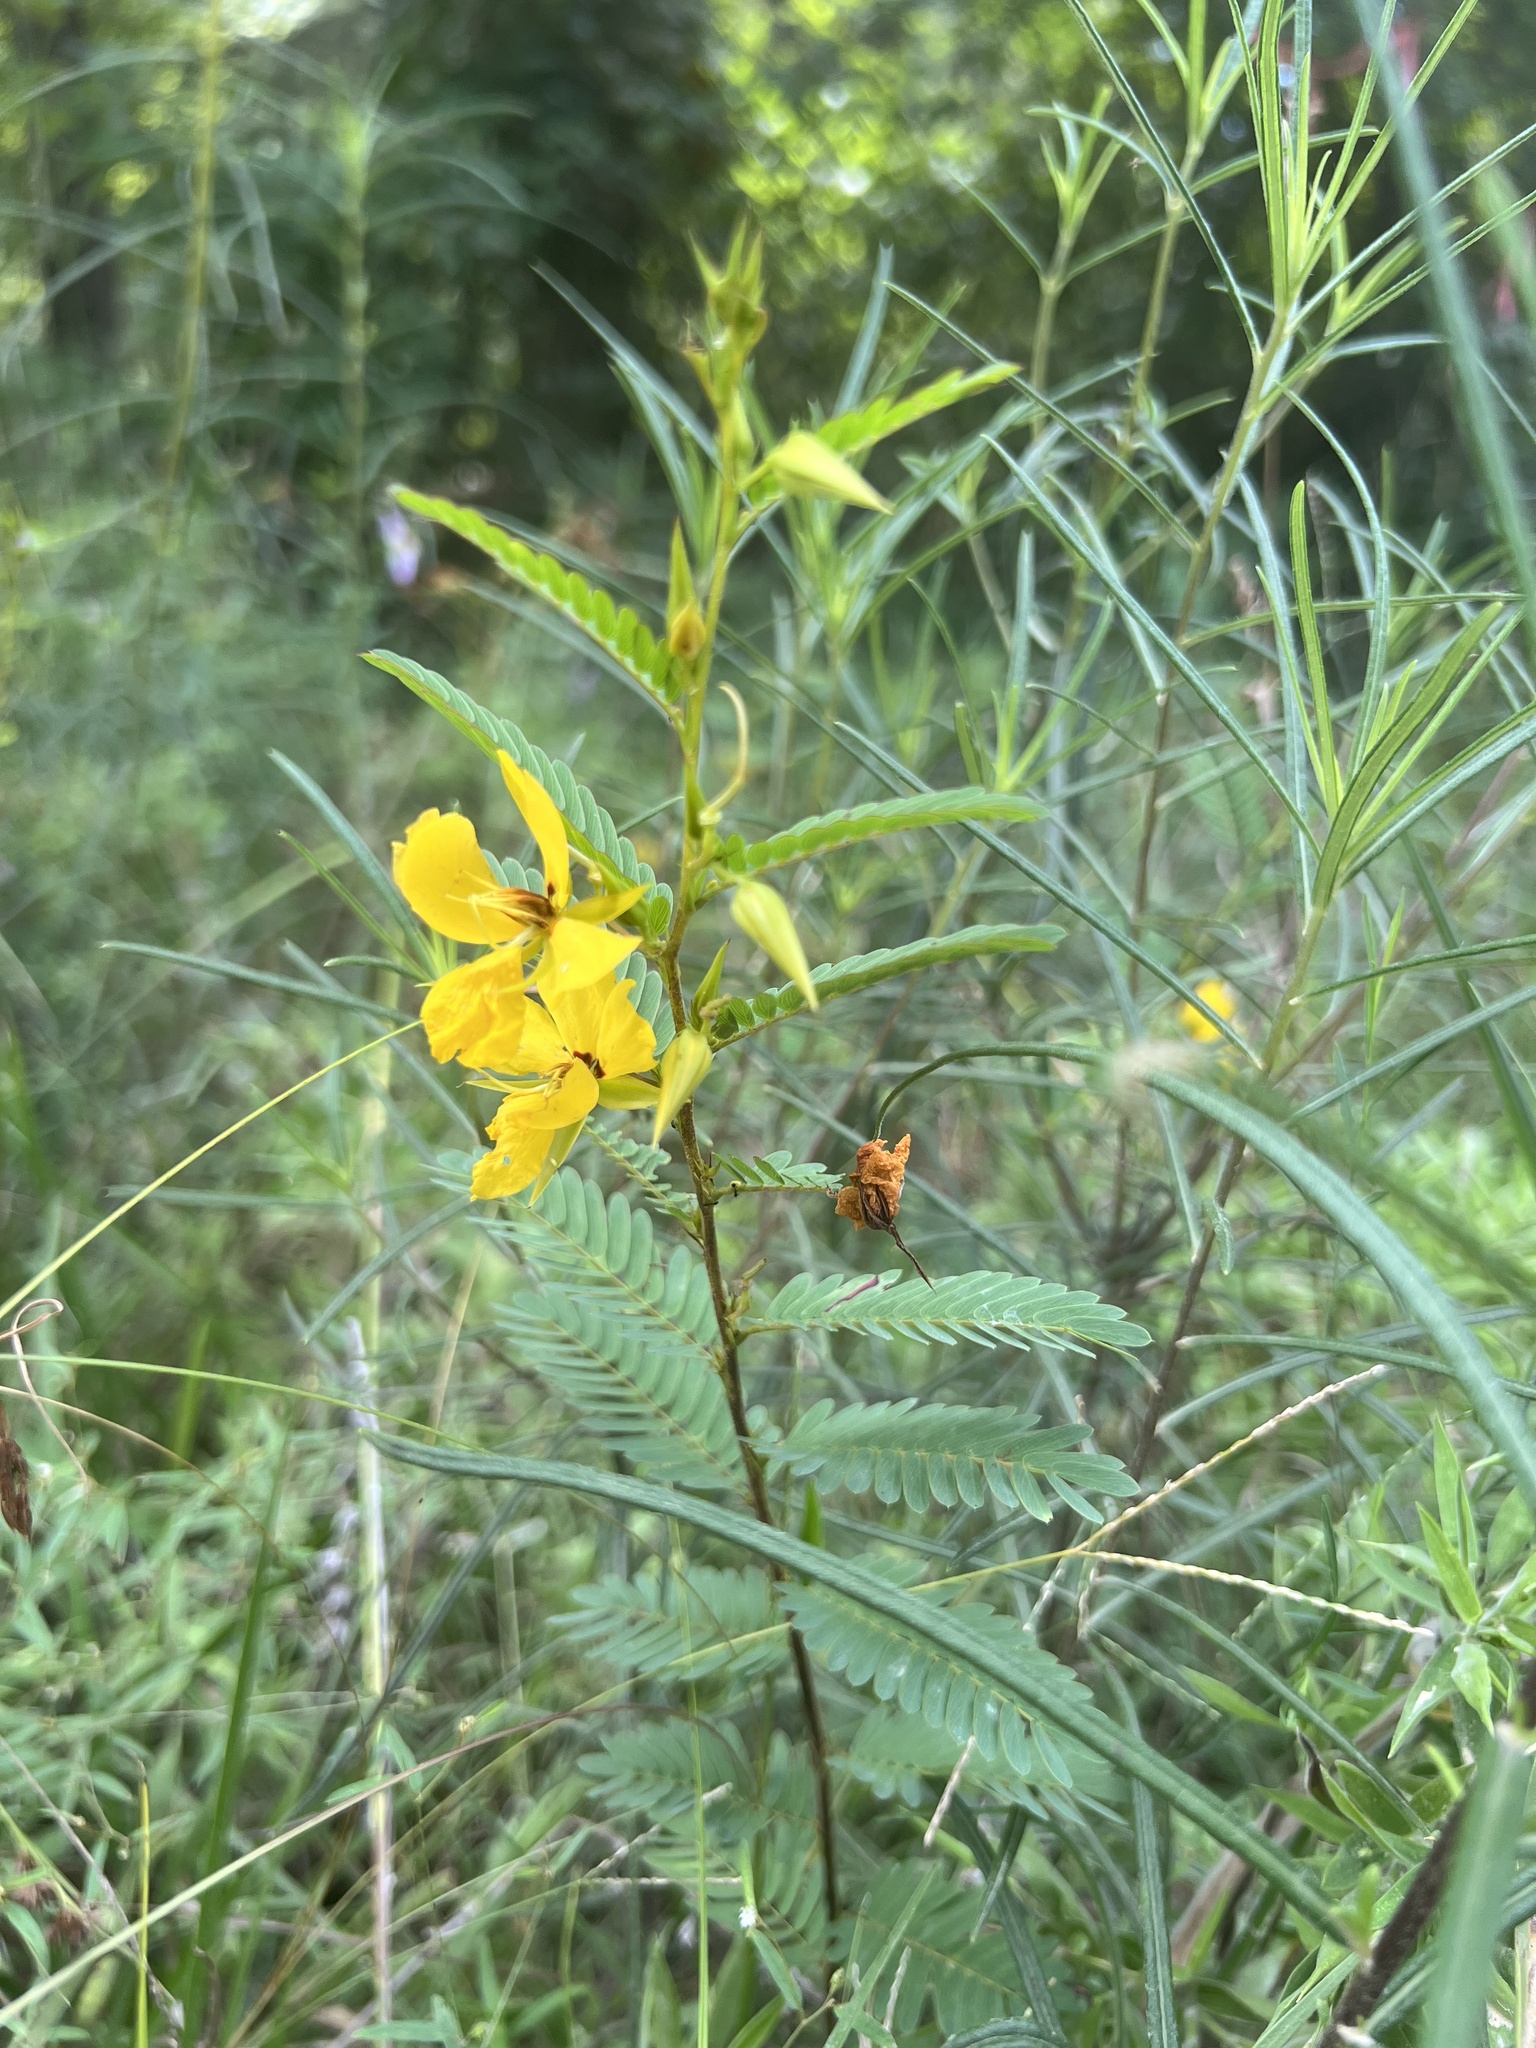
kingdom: Plantae
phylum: Tracheophyta
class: Magnoliopsida
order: Fabales
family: Fabaceae
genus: Chamaecrista
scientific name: Chamaecrista fasciculata
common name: Golden cassia
